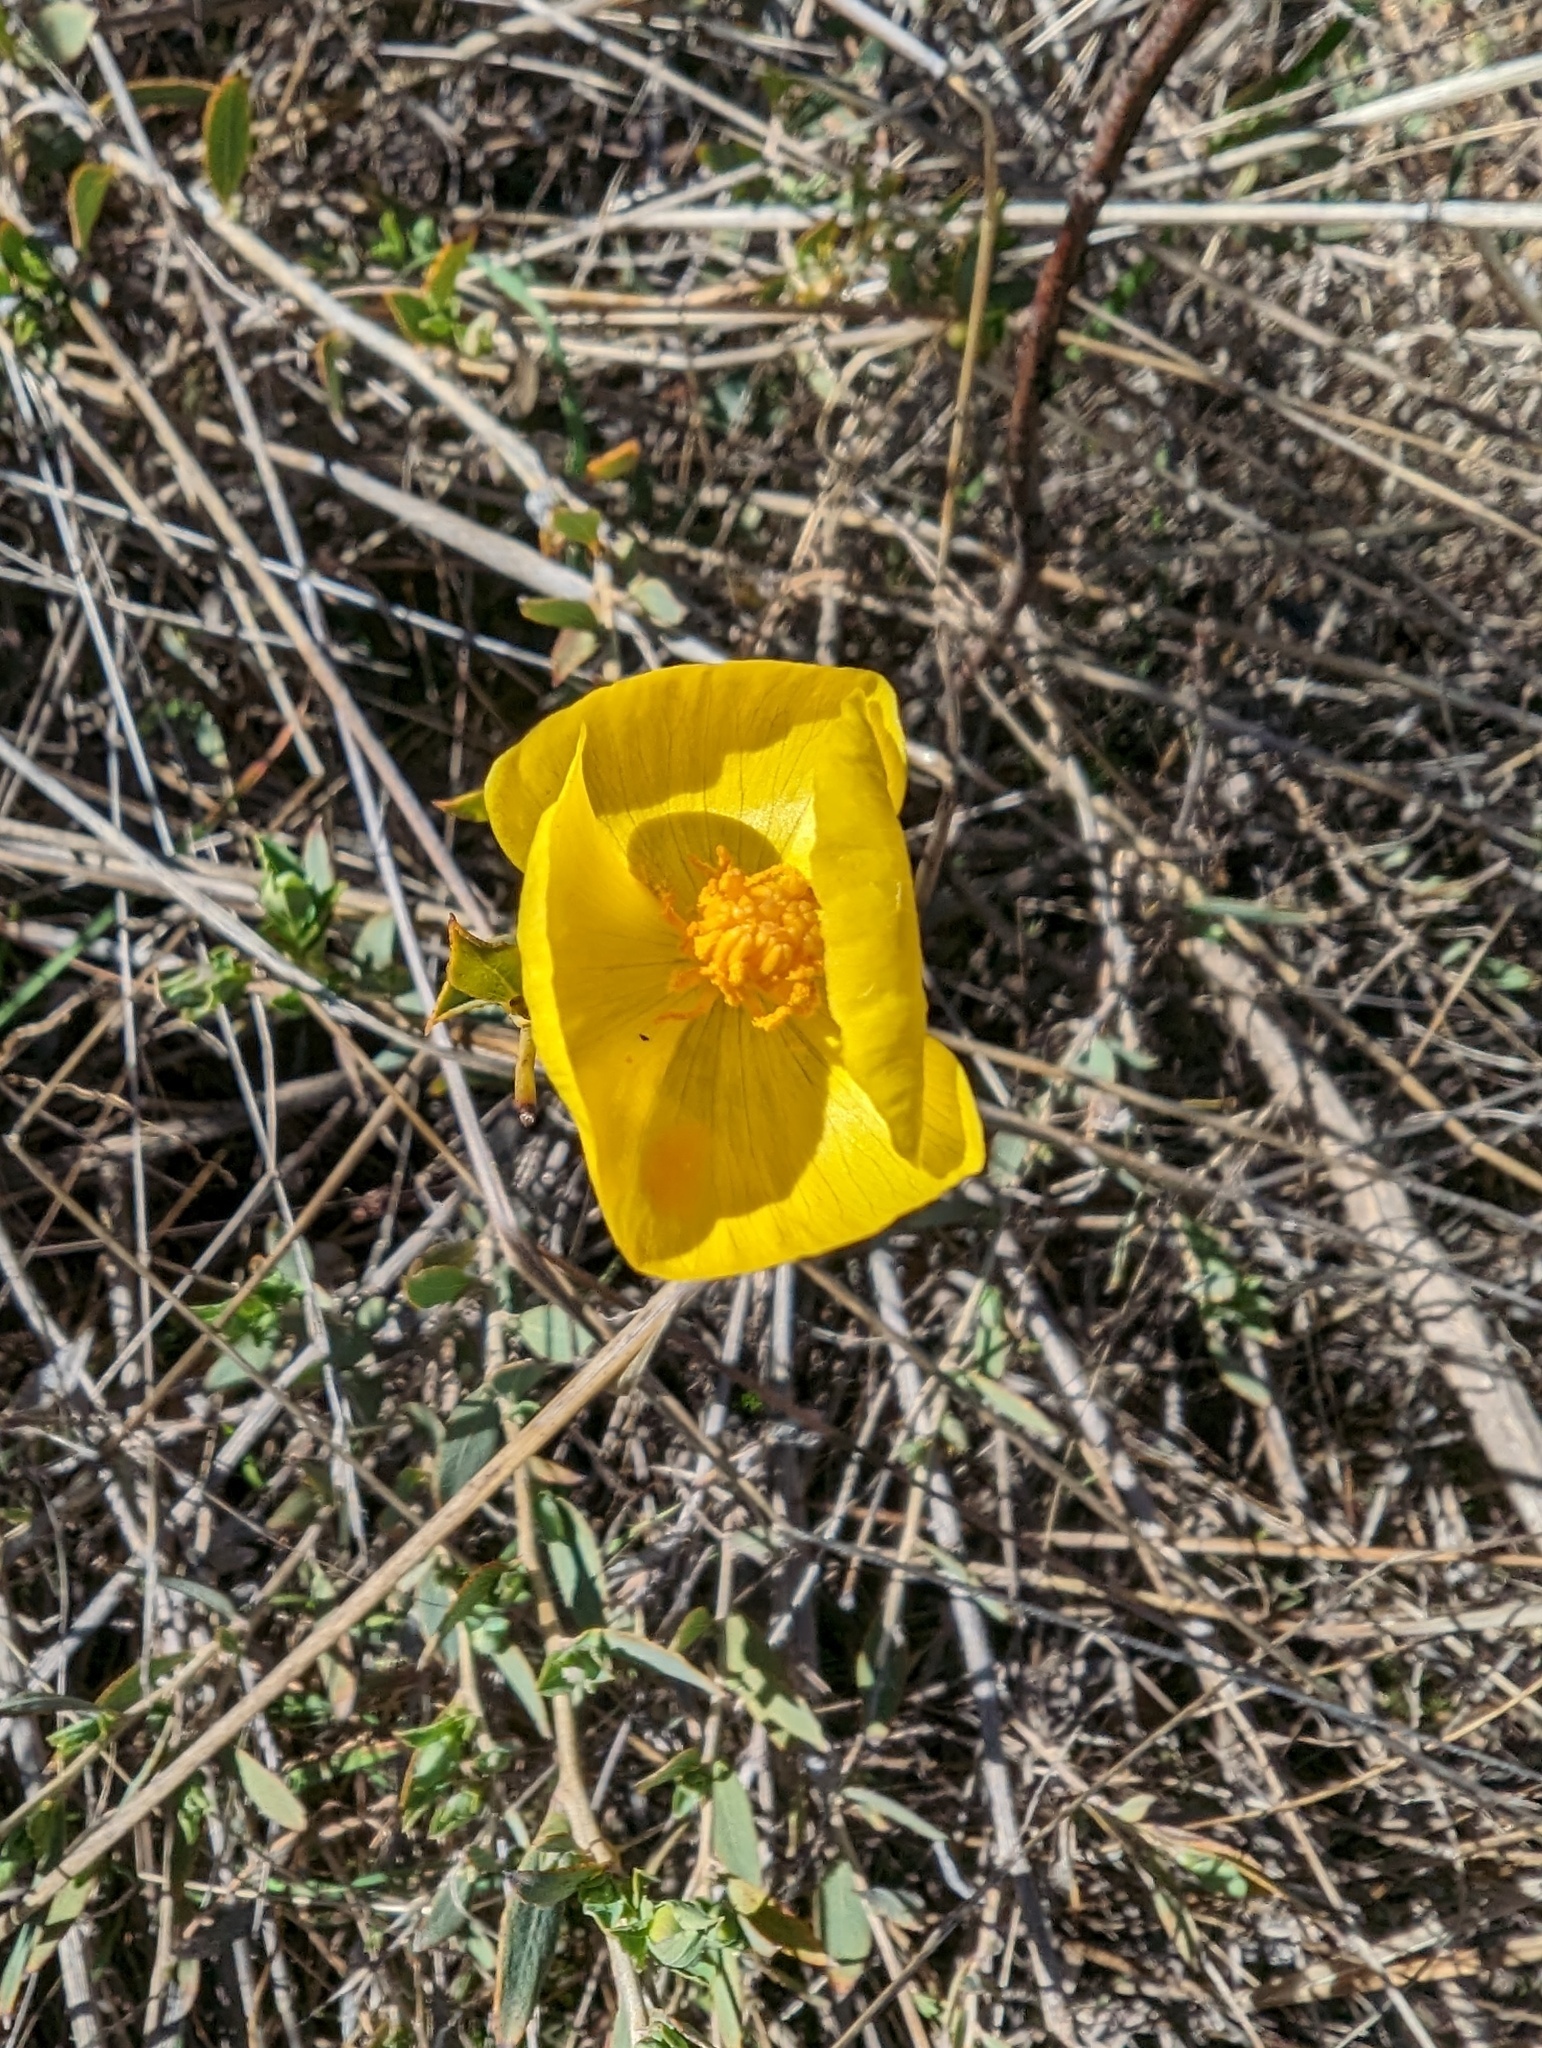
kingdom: Plantae
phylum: Tracheophyta
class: Magnoliopsida
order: Ranunculales
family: Papaveraceae
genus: Dendromecon
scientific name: Dendromecon rigida
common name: Tree poppy
